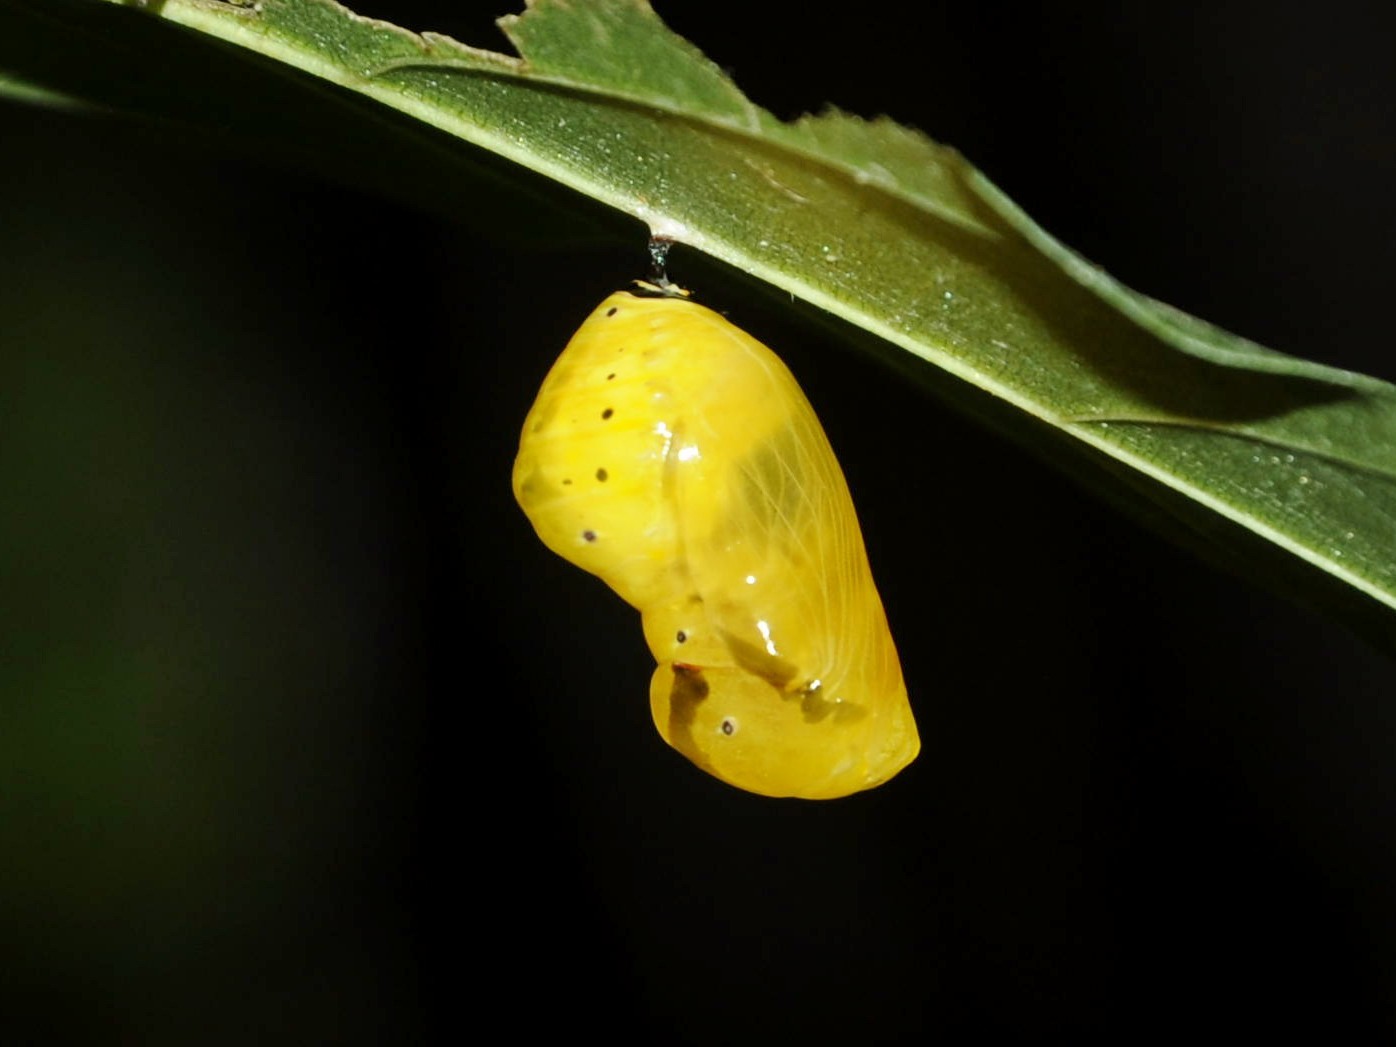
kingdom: Animalia
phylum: Arthropoda
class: Insecta
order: Lepidoptera
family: Nymphalidae
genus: Euploea
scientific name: Euploea core
